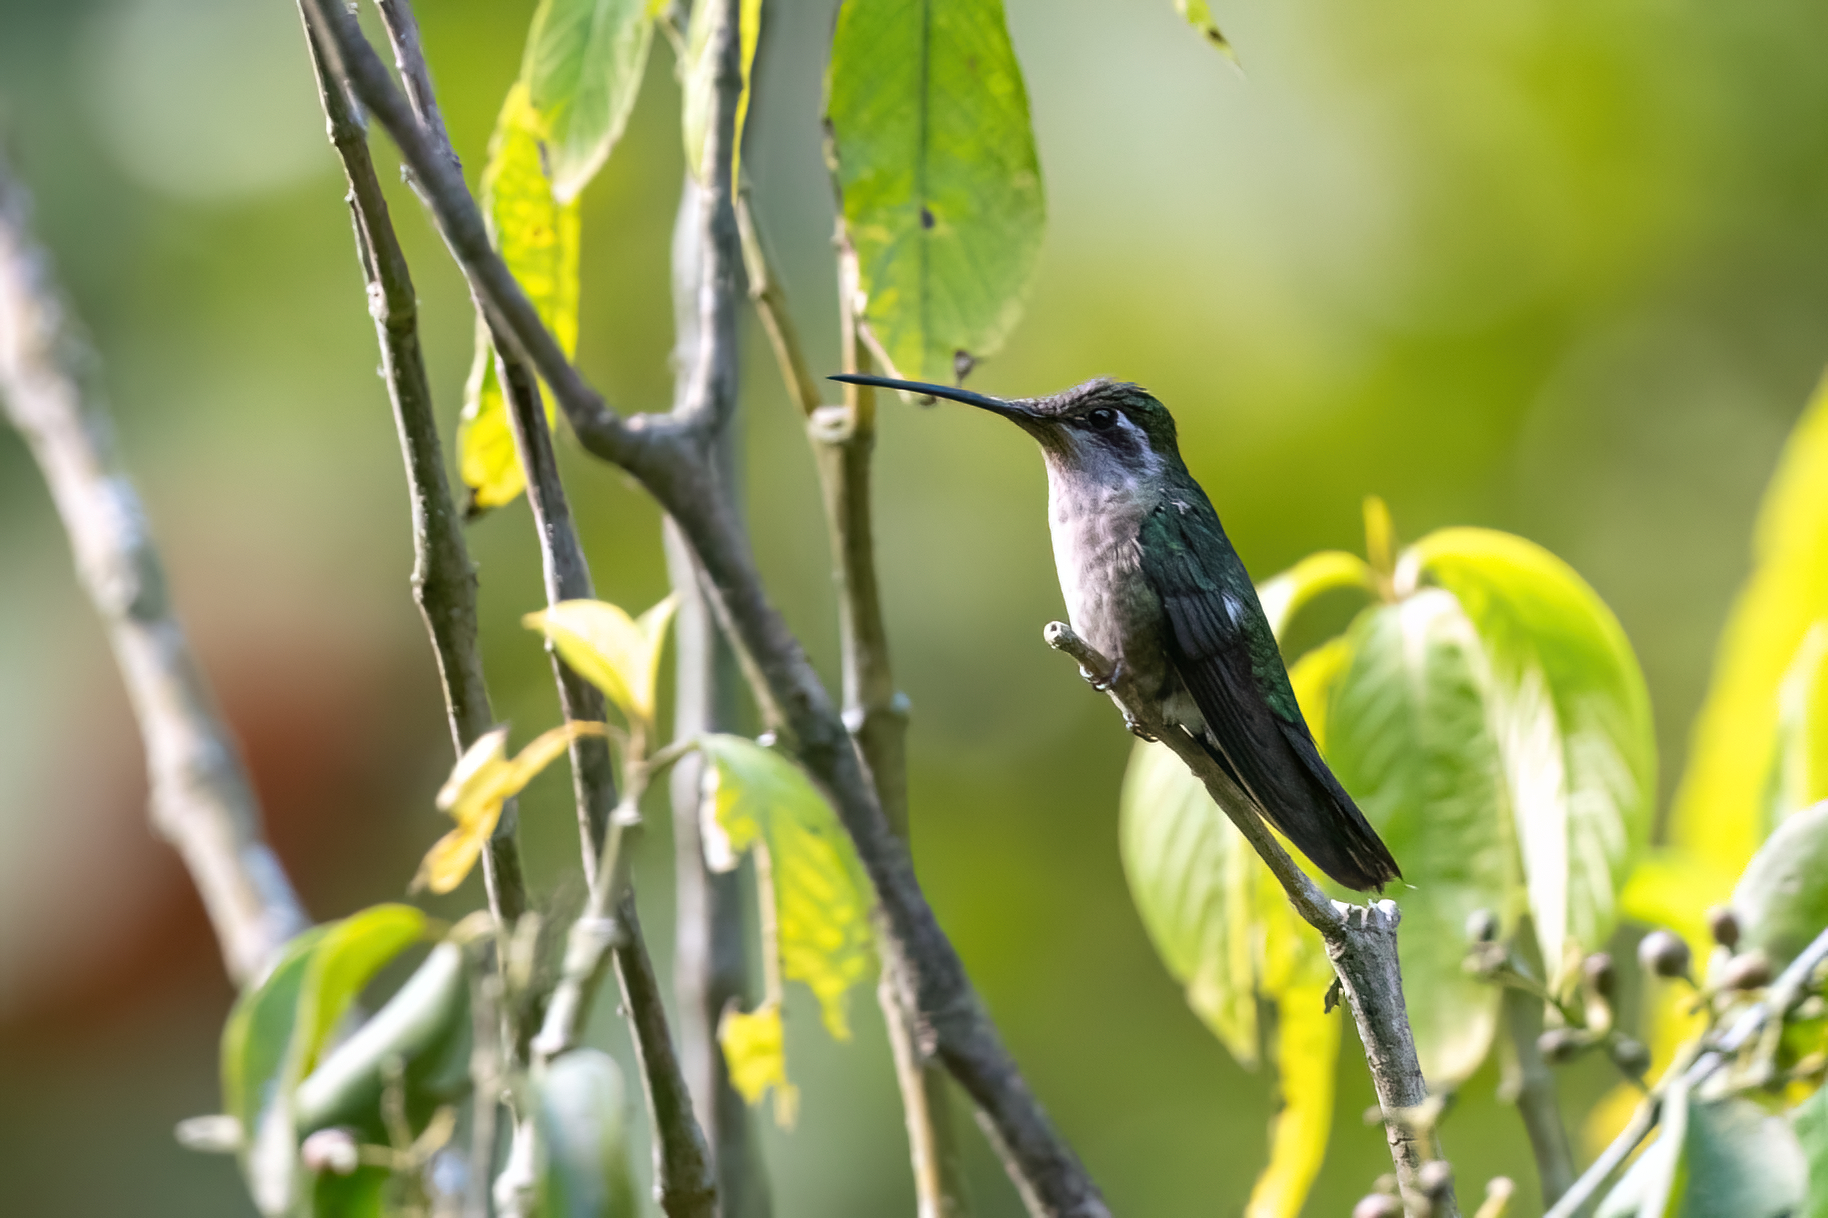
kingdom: Animalia
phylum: Chordata
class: Aves
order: Apodiformes
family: Trochilidae
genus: Eugenes
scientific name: Eugenes fulgens
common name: Magnificent hummingbird
